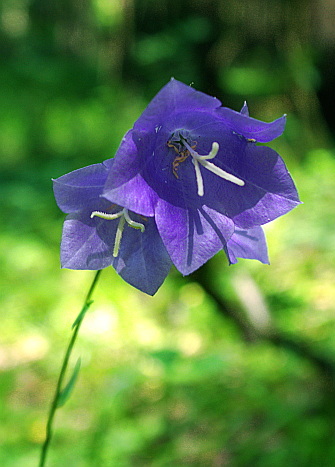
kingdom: Plantae
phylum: Tracheophyta
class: Magnoliopsida
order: Asterales
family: Campanulaceae
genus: Campanula
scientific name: Campanula persicifolia
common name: Peach-leaved bellflower
